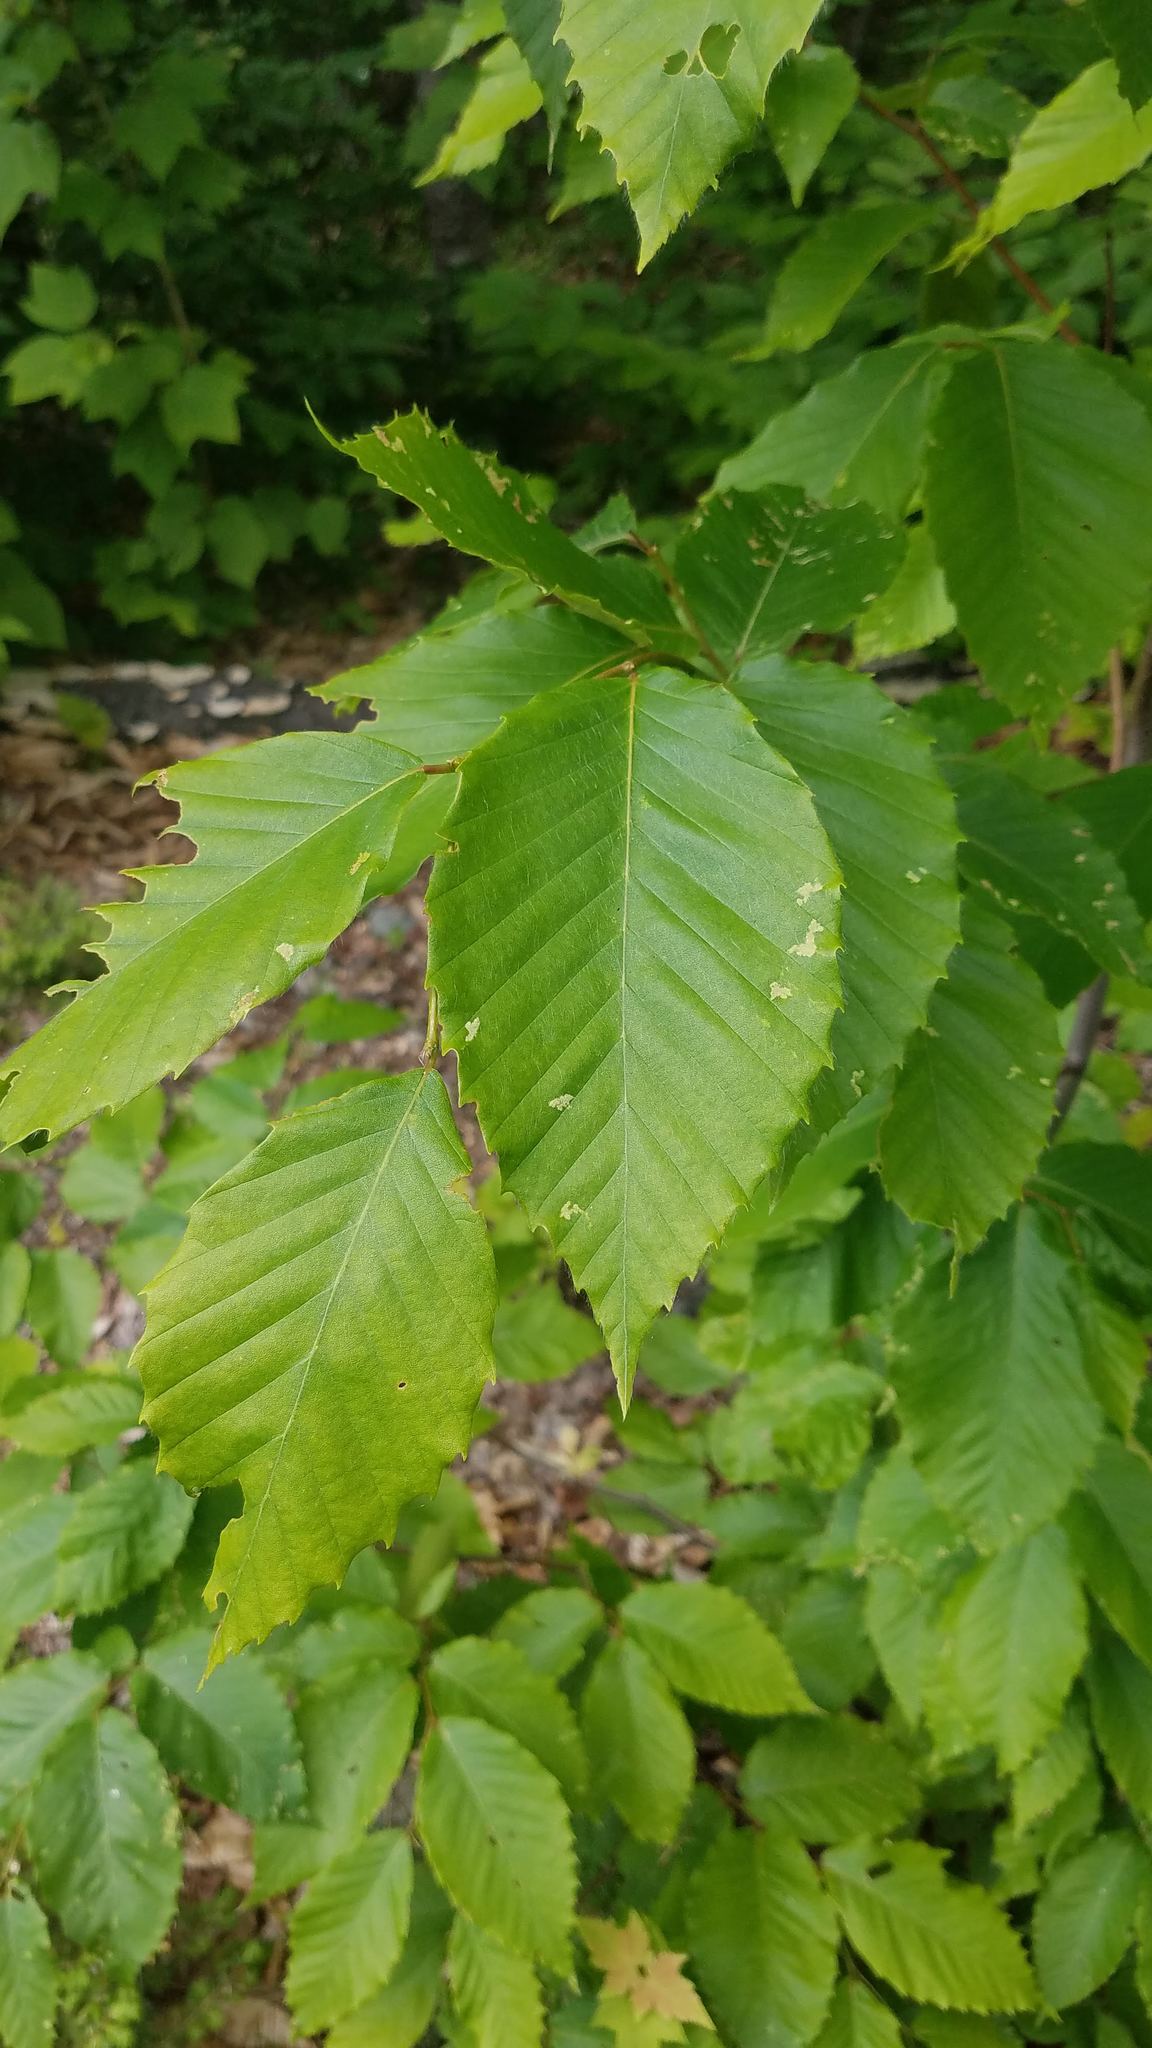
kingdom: Plantae
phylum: Tracheophyta
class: Magnoliopsida
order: Fagales
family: Fagaceae
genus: Fagus
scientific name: Fagus grandifolia
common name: American beech
